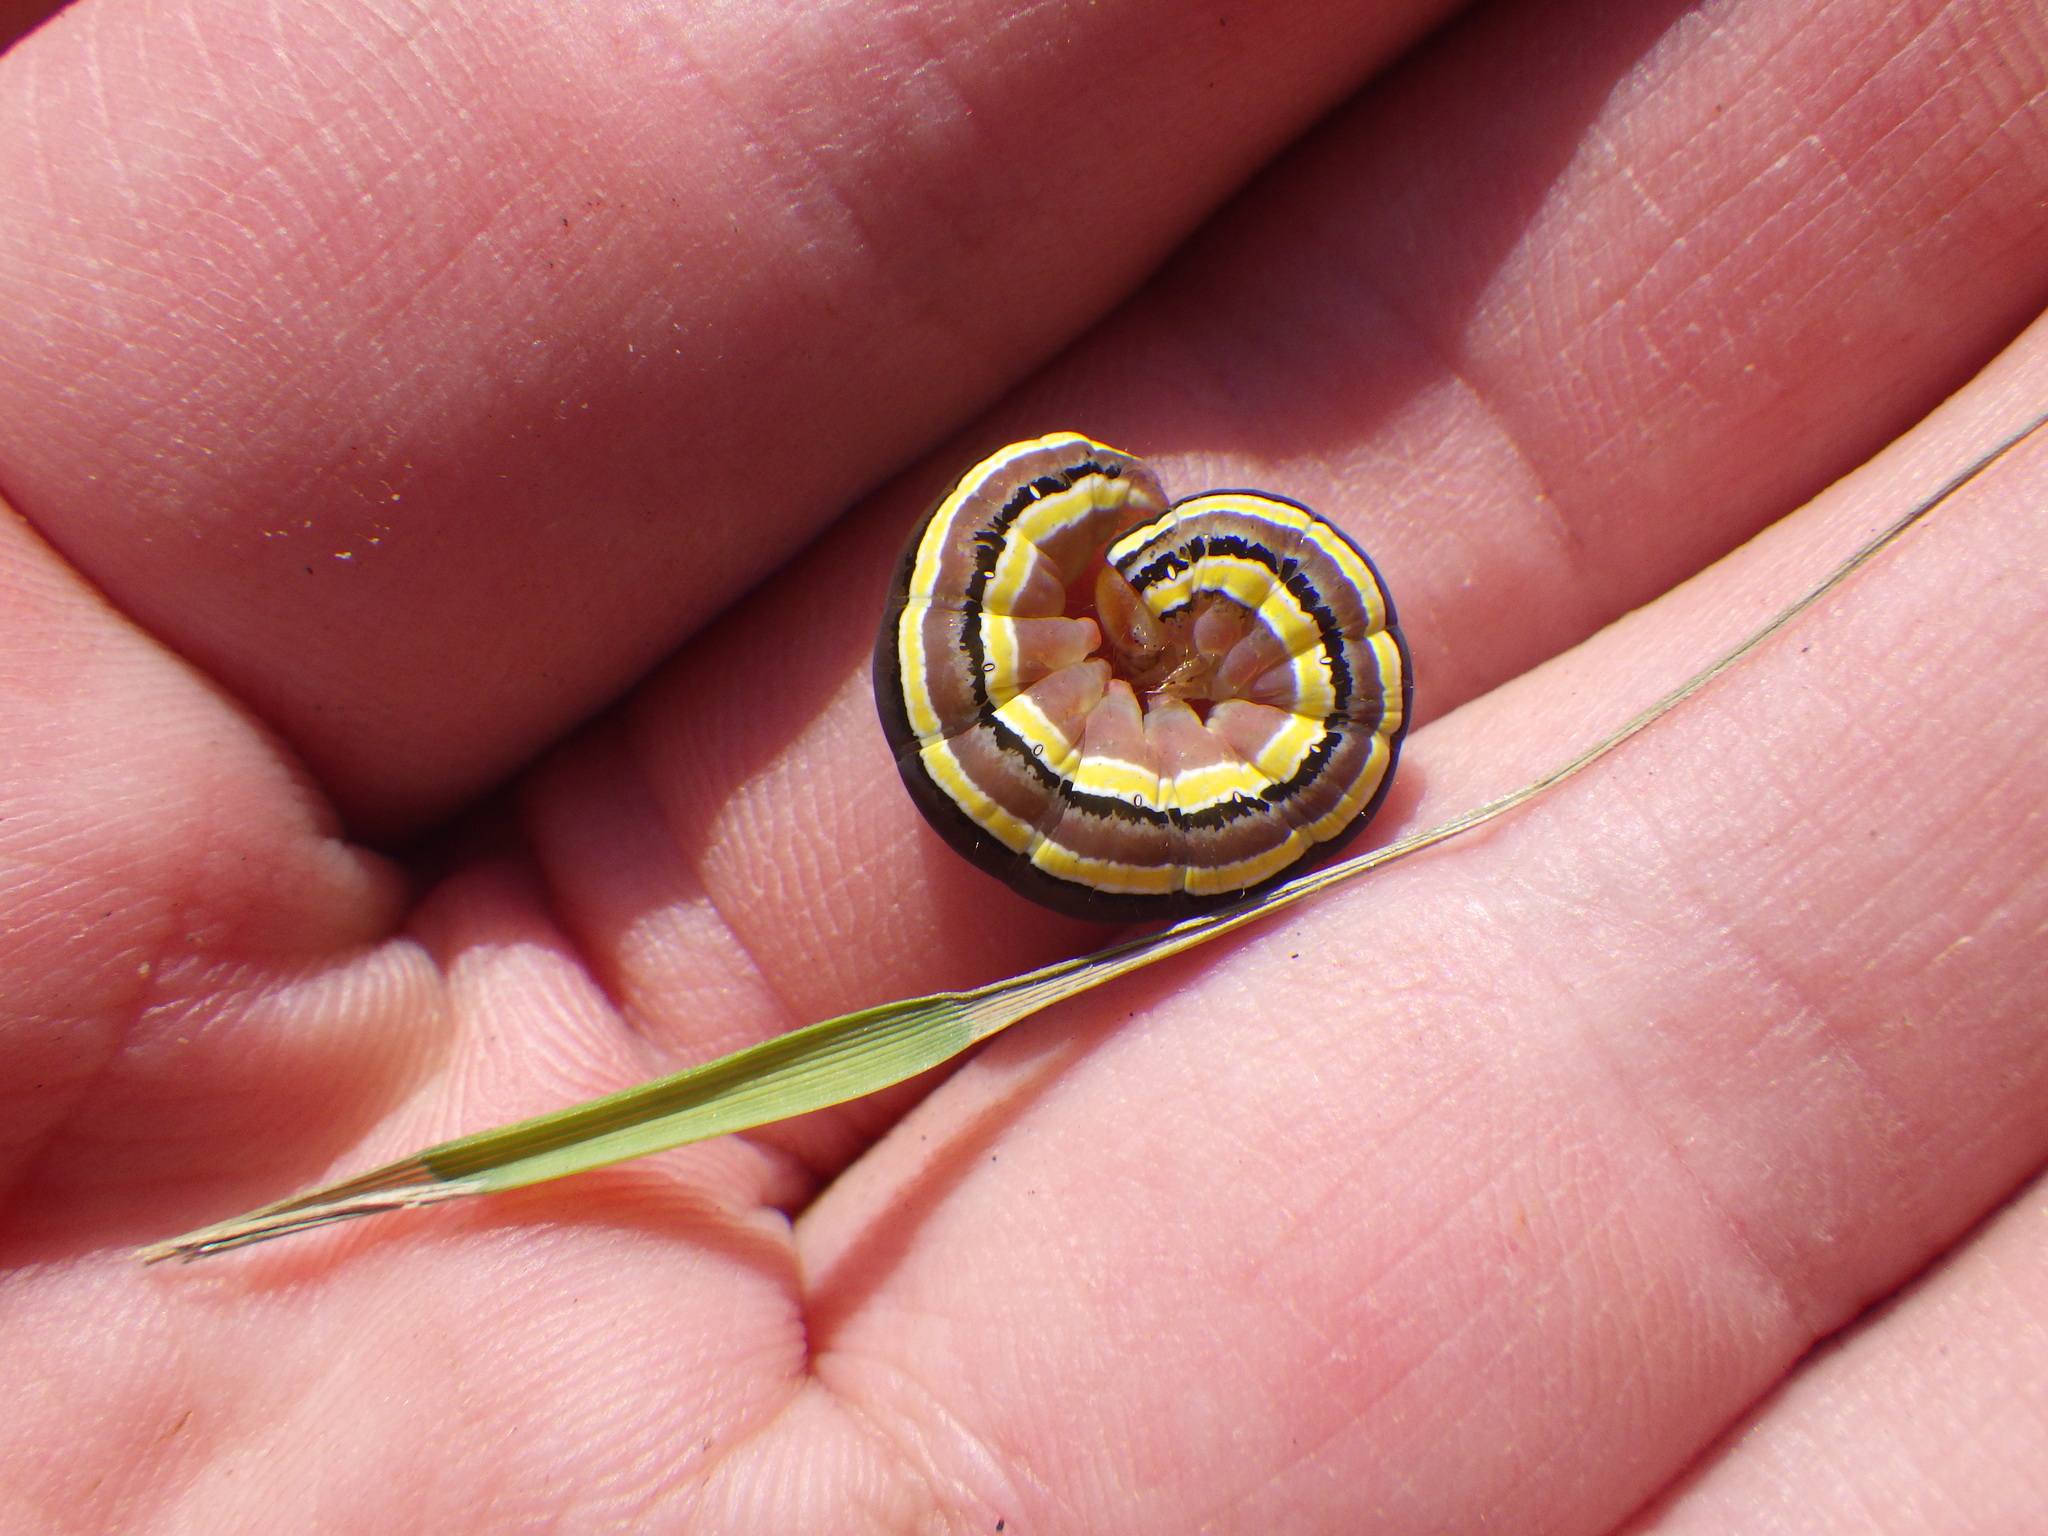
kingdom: Animalia
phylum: Arthropoda
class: Insecta
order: Lepidoptera
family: Noctuidae
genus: Trichordestra
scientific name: Trichordestra legitima
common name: Striped garden caterpillar
